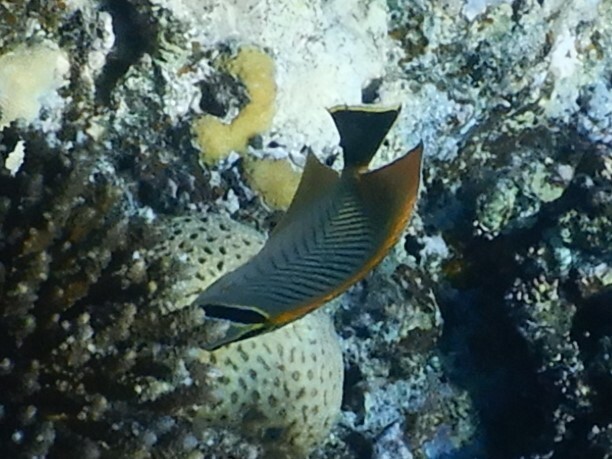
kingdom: Animalia
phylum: Chordata
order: Perciformes
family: Chaetodontidae
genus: Chaetodon
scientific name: Chaetodon trifascialis
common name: Chevroned butterflyfish
